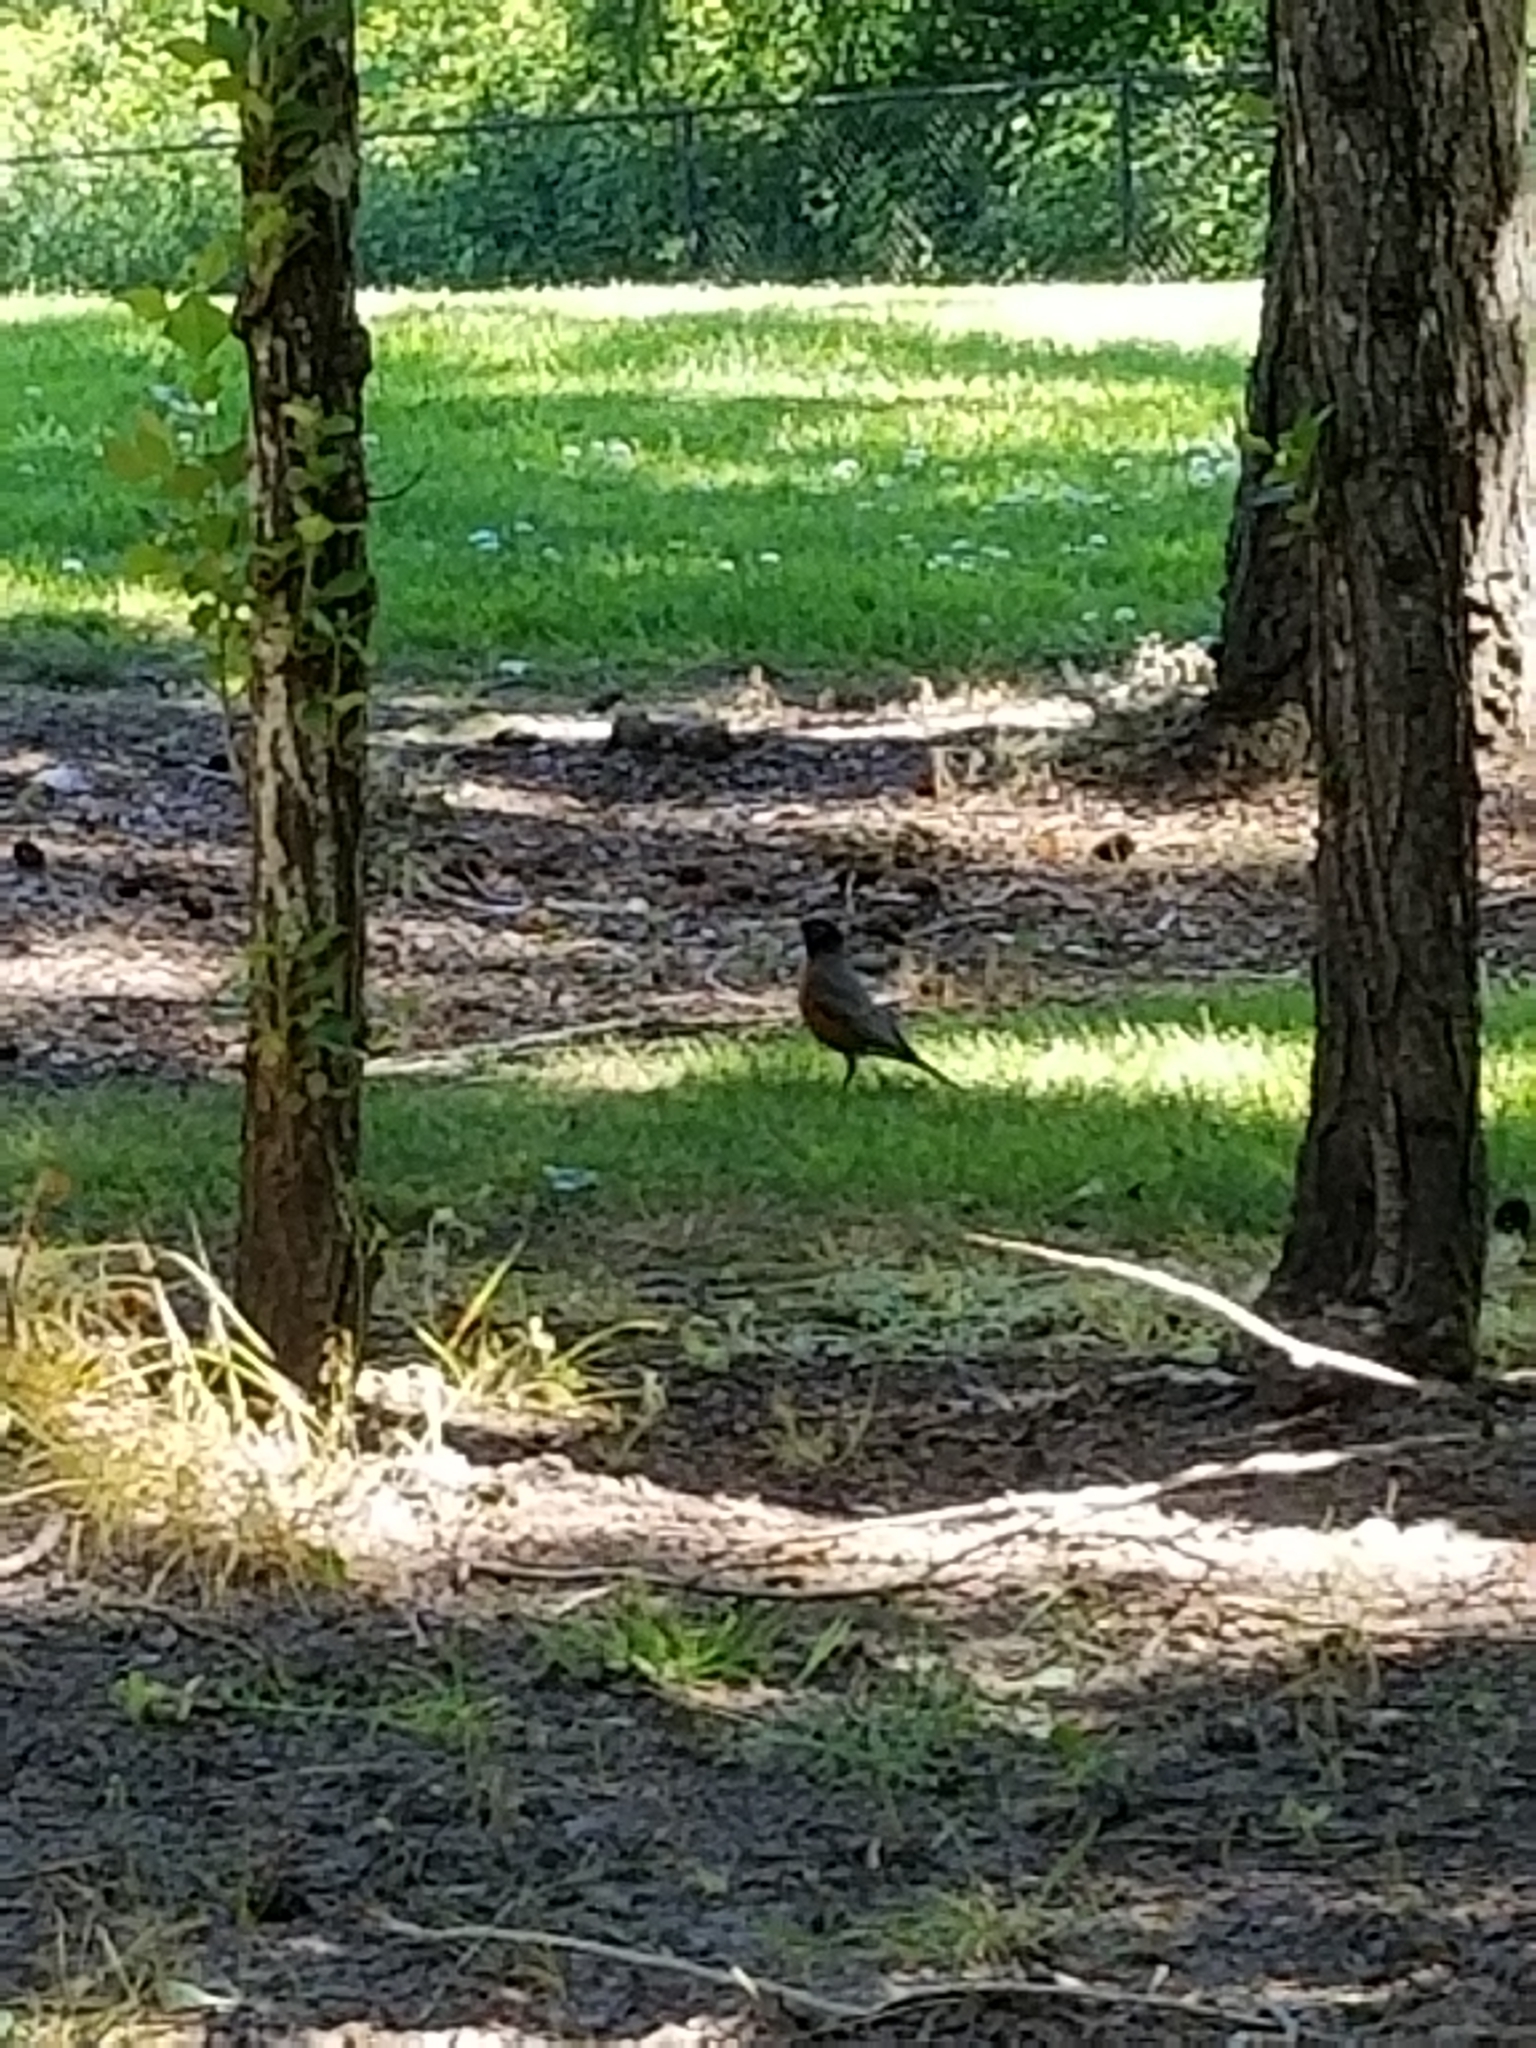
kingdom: Animalia
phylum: Chordata
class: Aves
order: Passeriformes
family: Turdidae
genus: Turdus
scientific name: Turdus migratorius
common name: American robin
